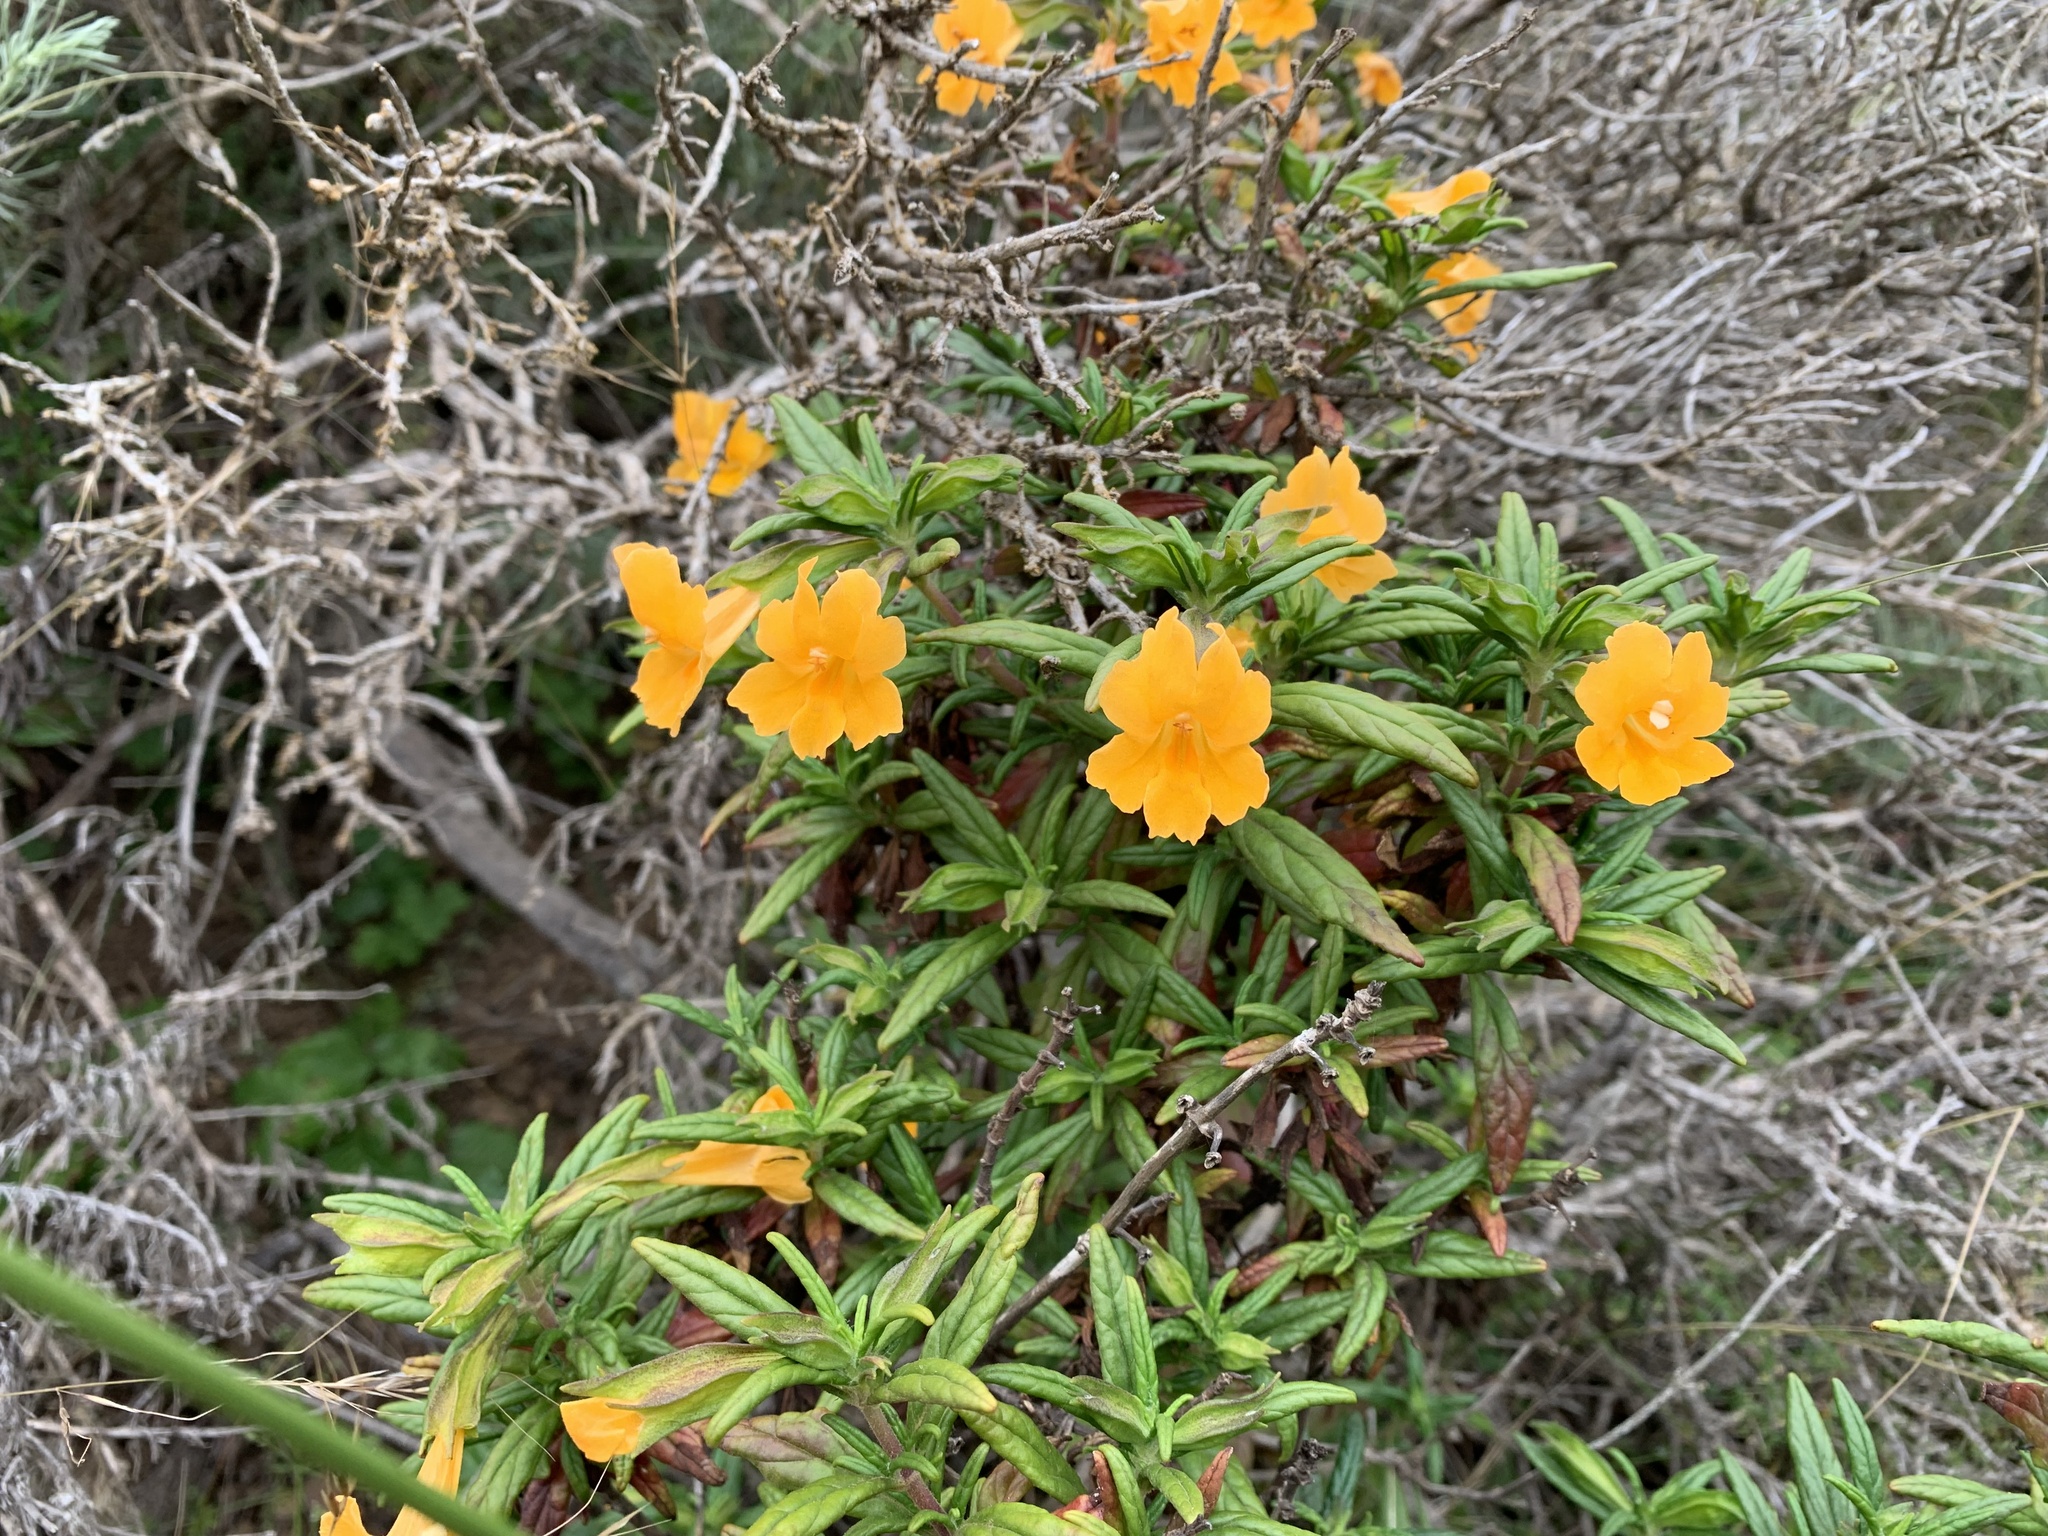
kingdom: Plantae
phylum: Tracheophyta
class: Magnoliopsida
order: Lamiales
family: Phrymaceae
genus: Diplacus
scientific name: Diplacus aurantiacus
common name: Bush monkey-flower
